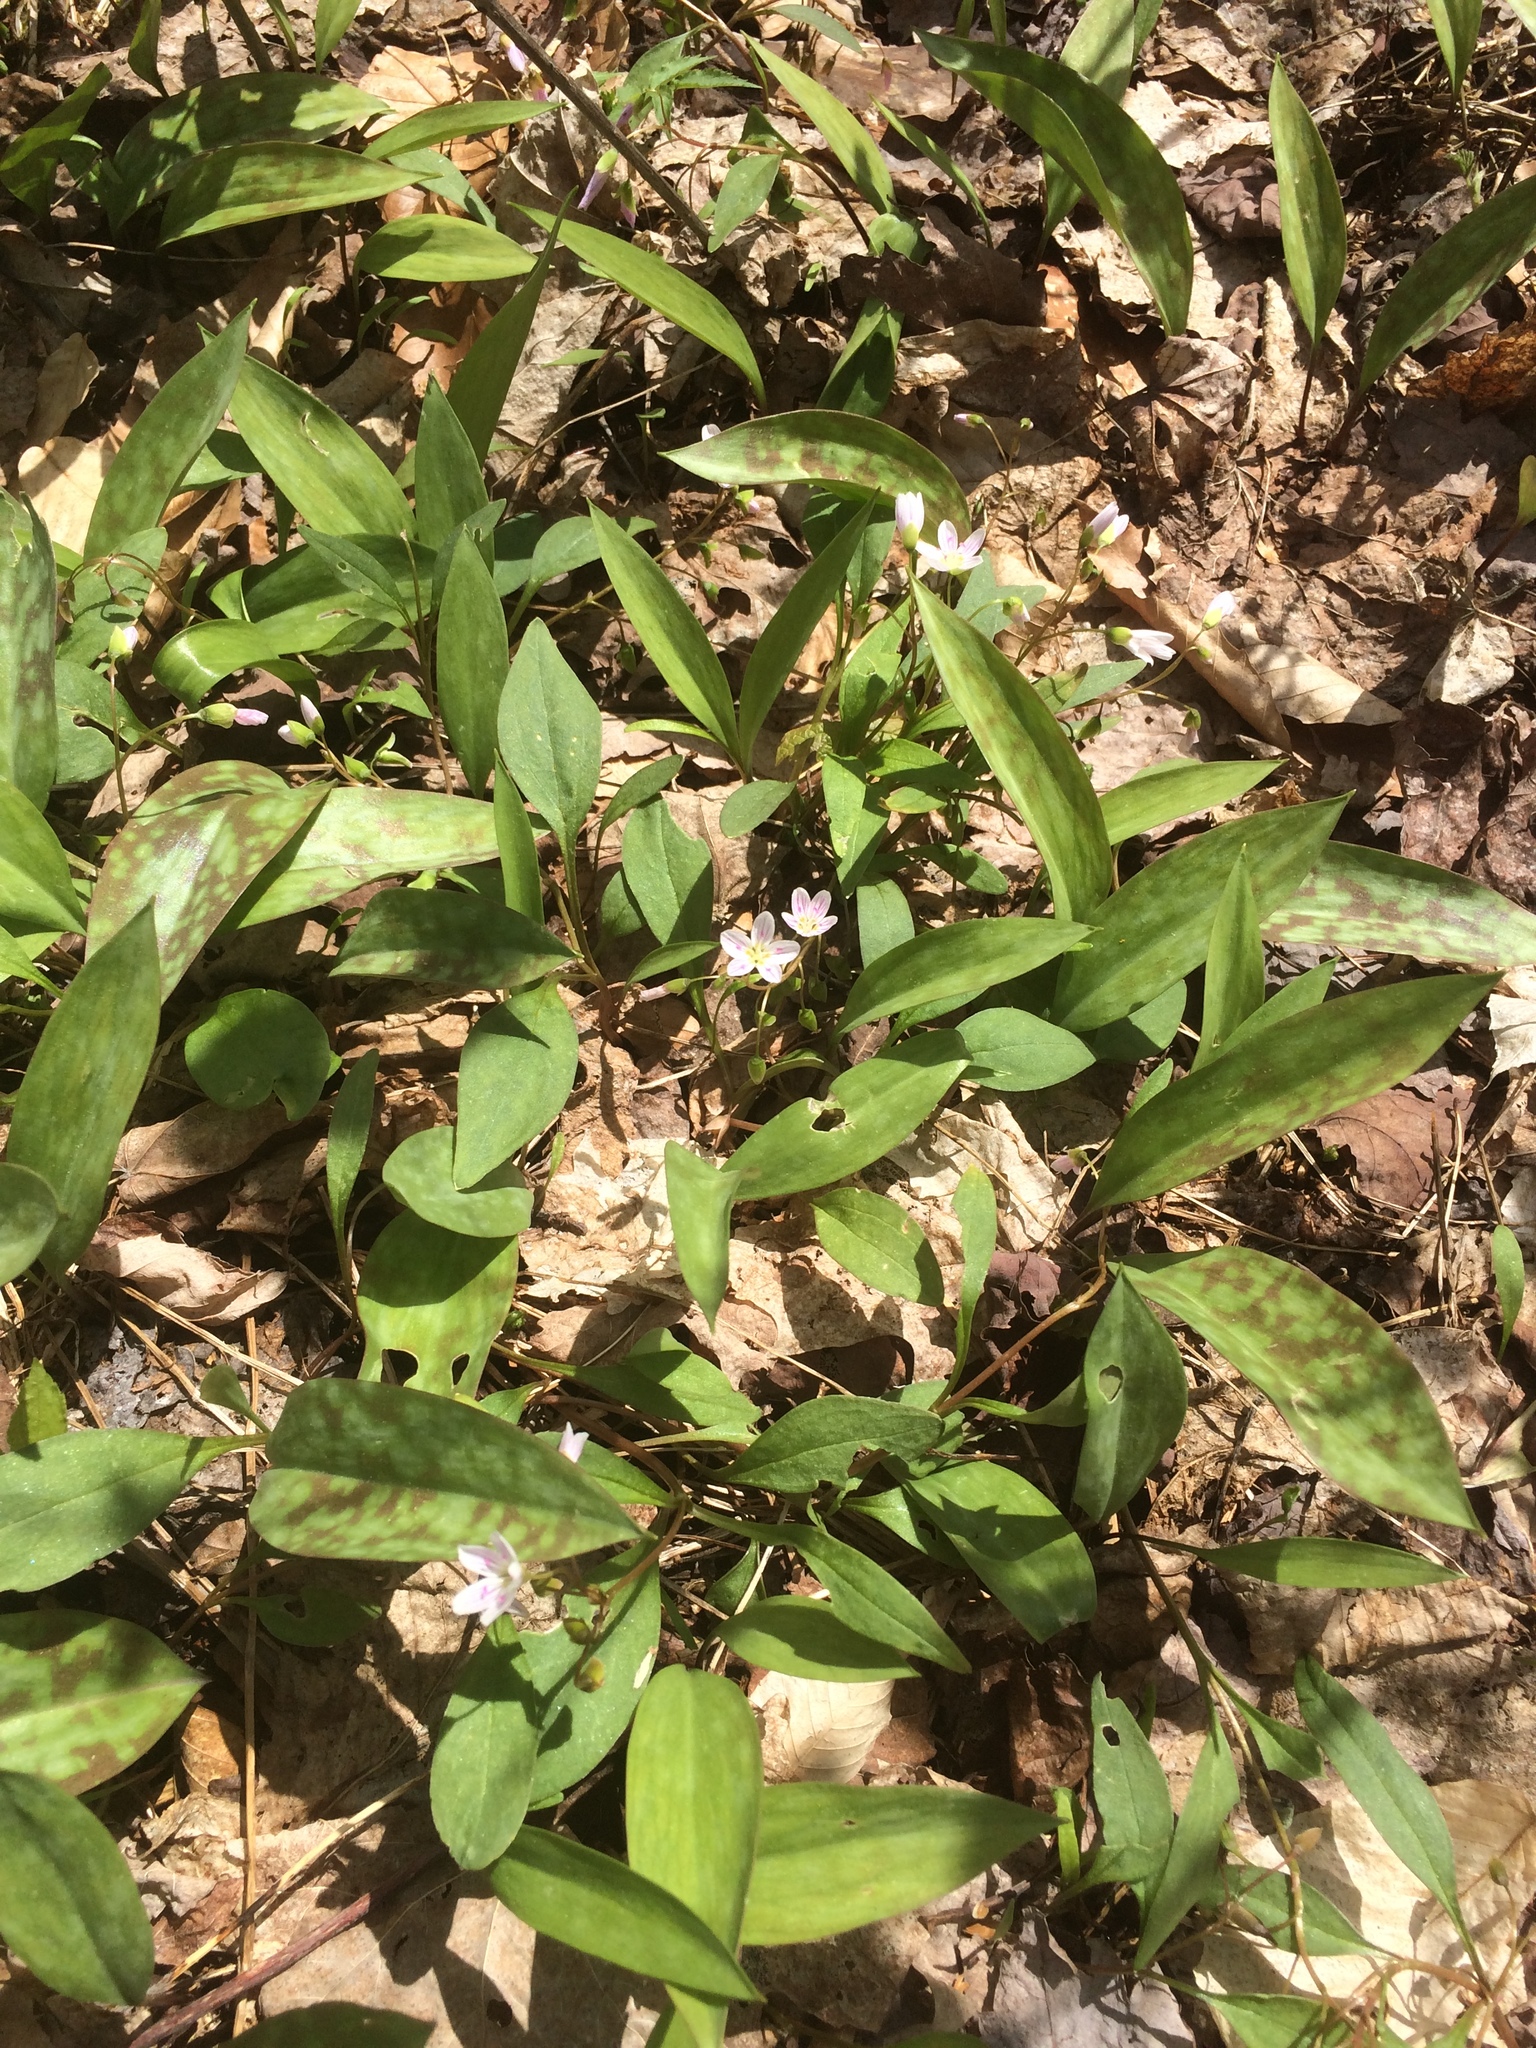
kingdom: Plantae
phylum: Tracheophyta
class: Magnoliopsida
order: Caryophyllales
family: Montiaceae
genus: Claytonia
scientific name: Claytonia caroliniana
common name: Carolina spring beauty
